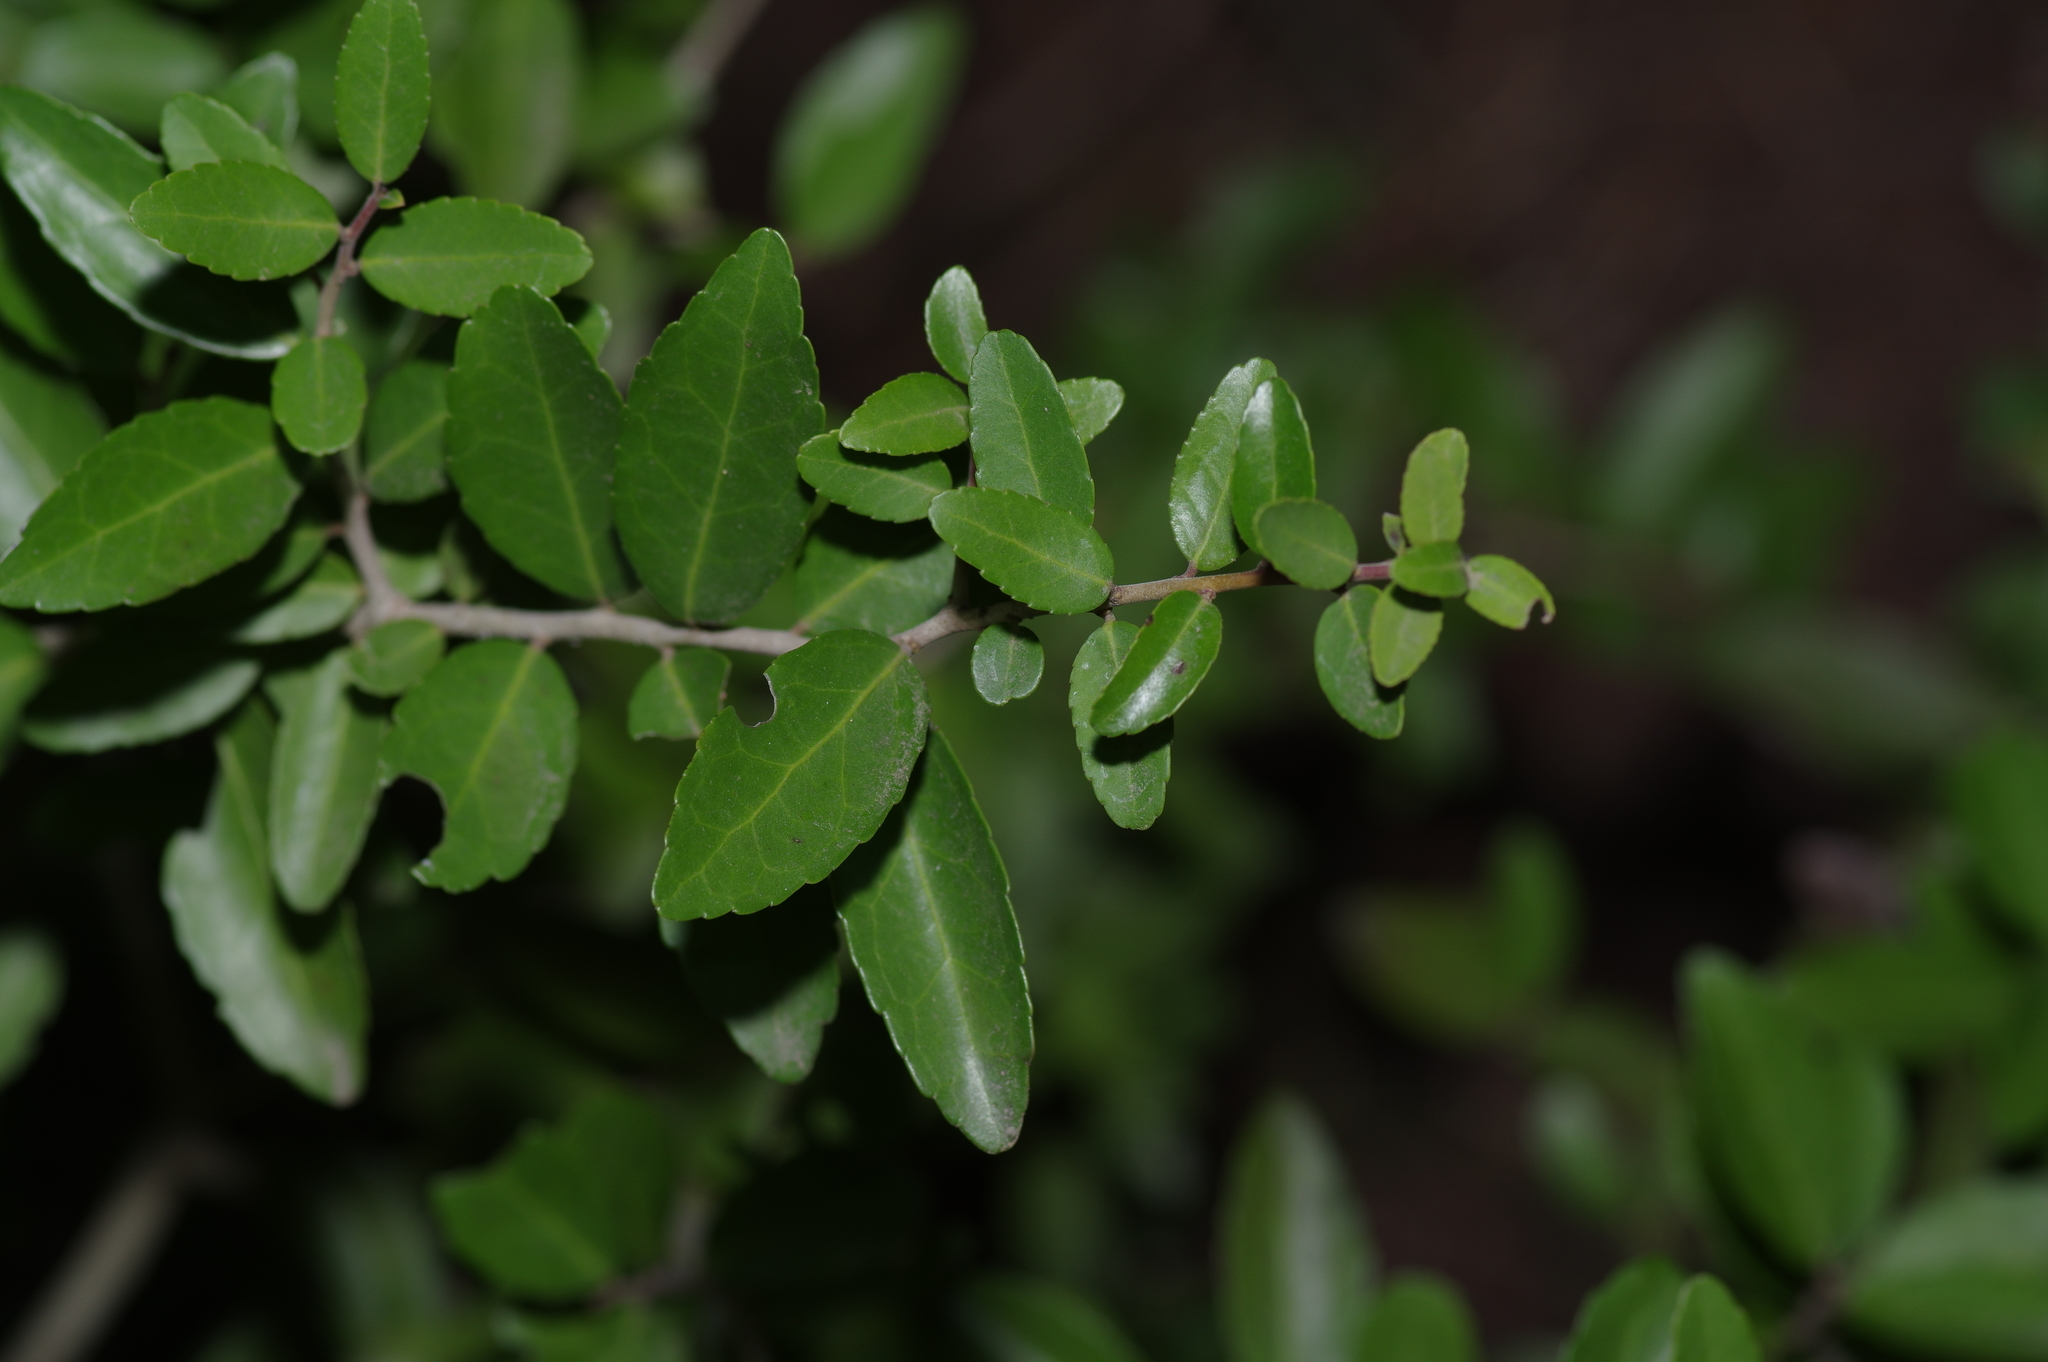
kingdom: Plantae
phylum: Tracheophyta
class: Magnoliopsida
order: Aquifoliales
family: Aquifoliaceae
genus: Ilex
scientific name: Ilex vomitoria
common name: Yaupon holly
